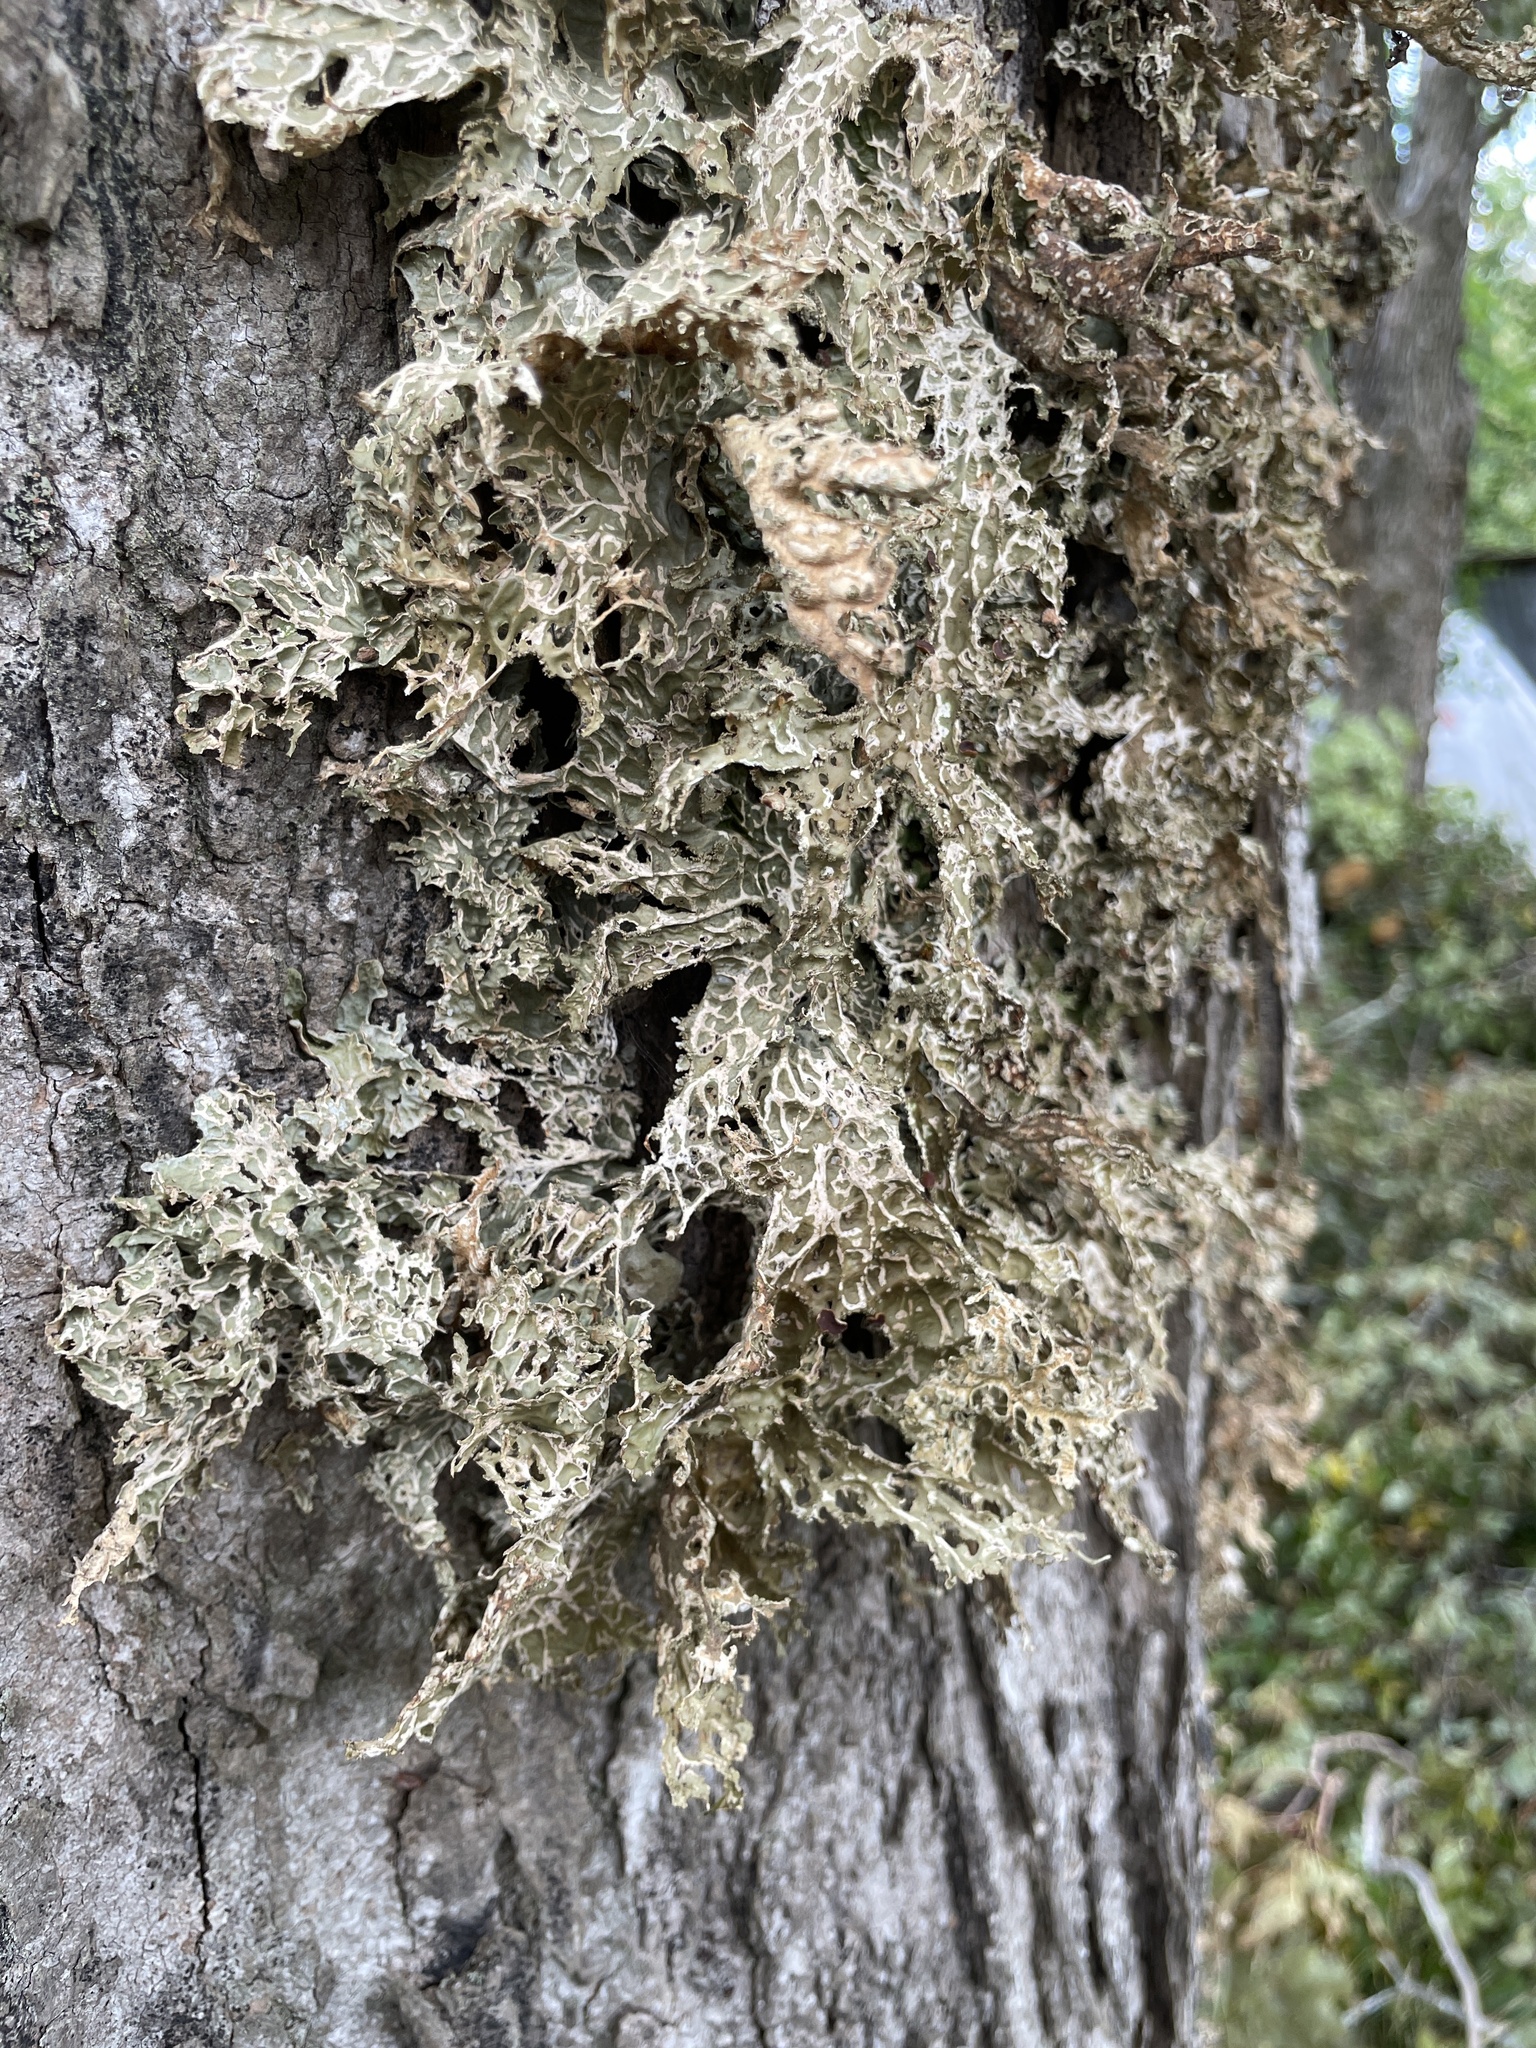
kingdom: Fungi
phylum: Ascomycota
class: Lecanoromycetes
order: Peltigerales
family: Lobariaceae
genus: Lobaria
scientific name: Lobaria pulmonaria
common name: Lungwort
